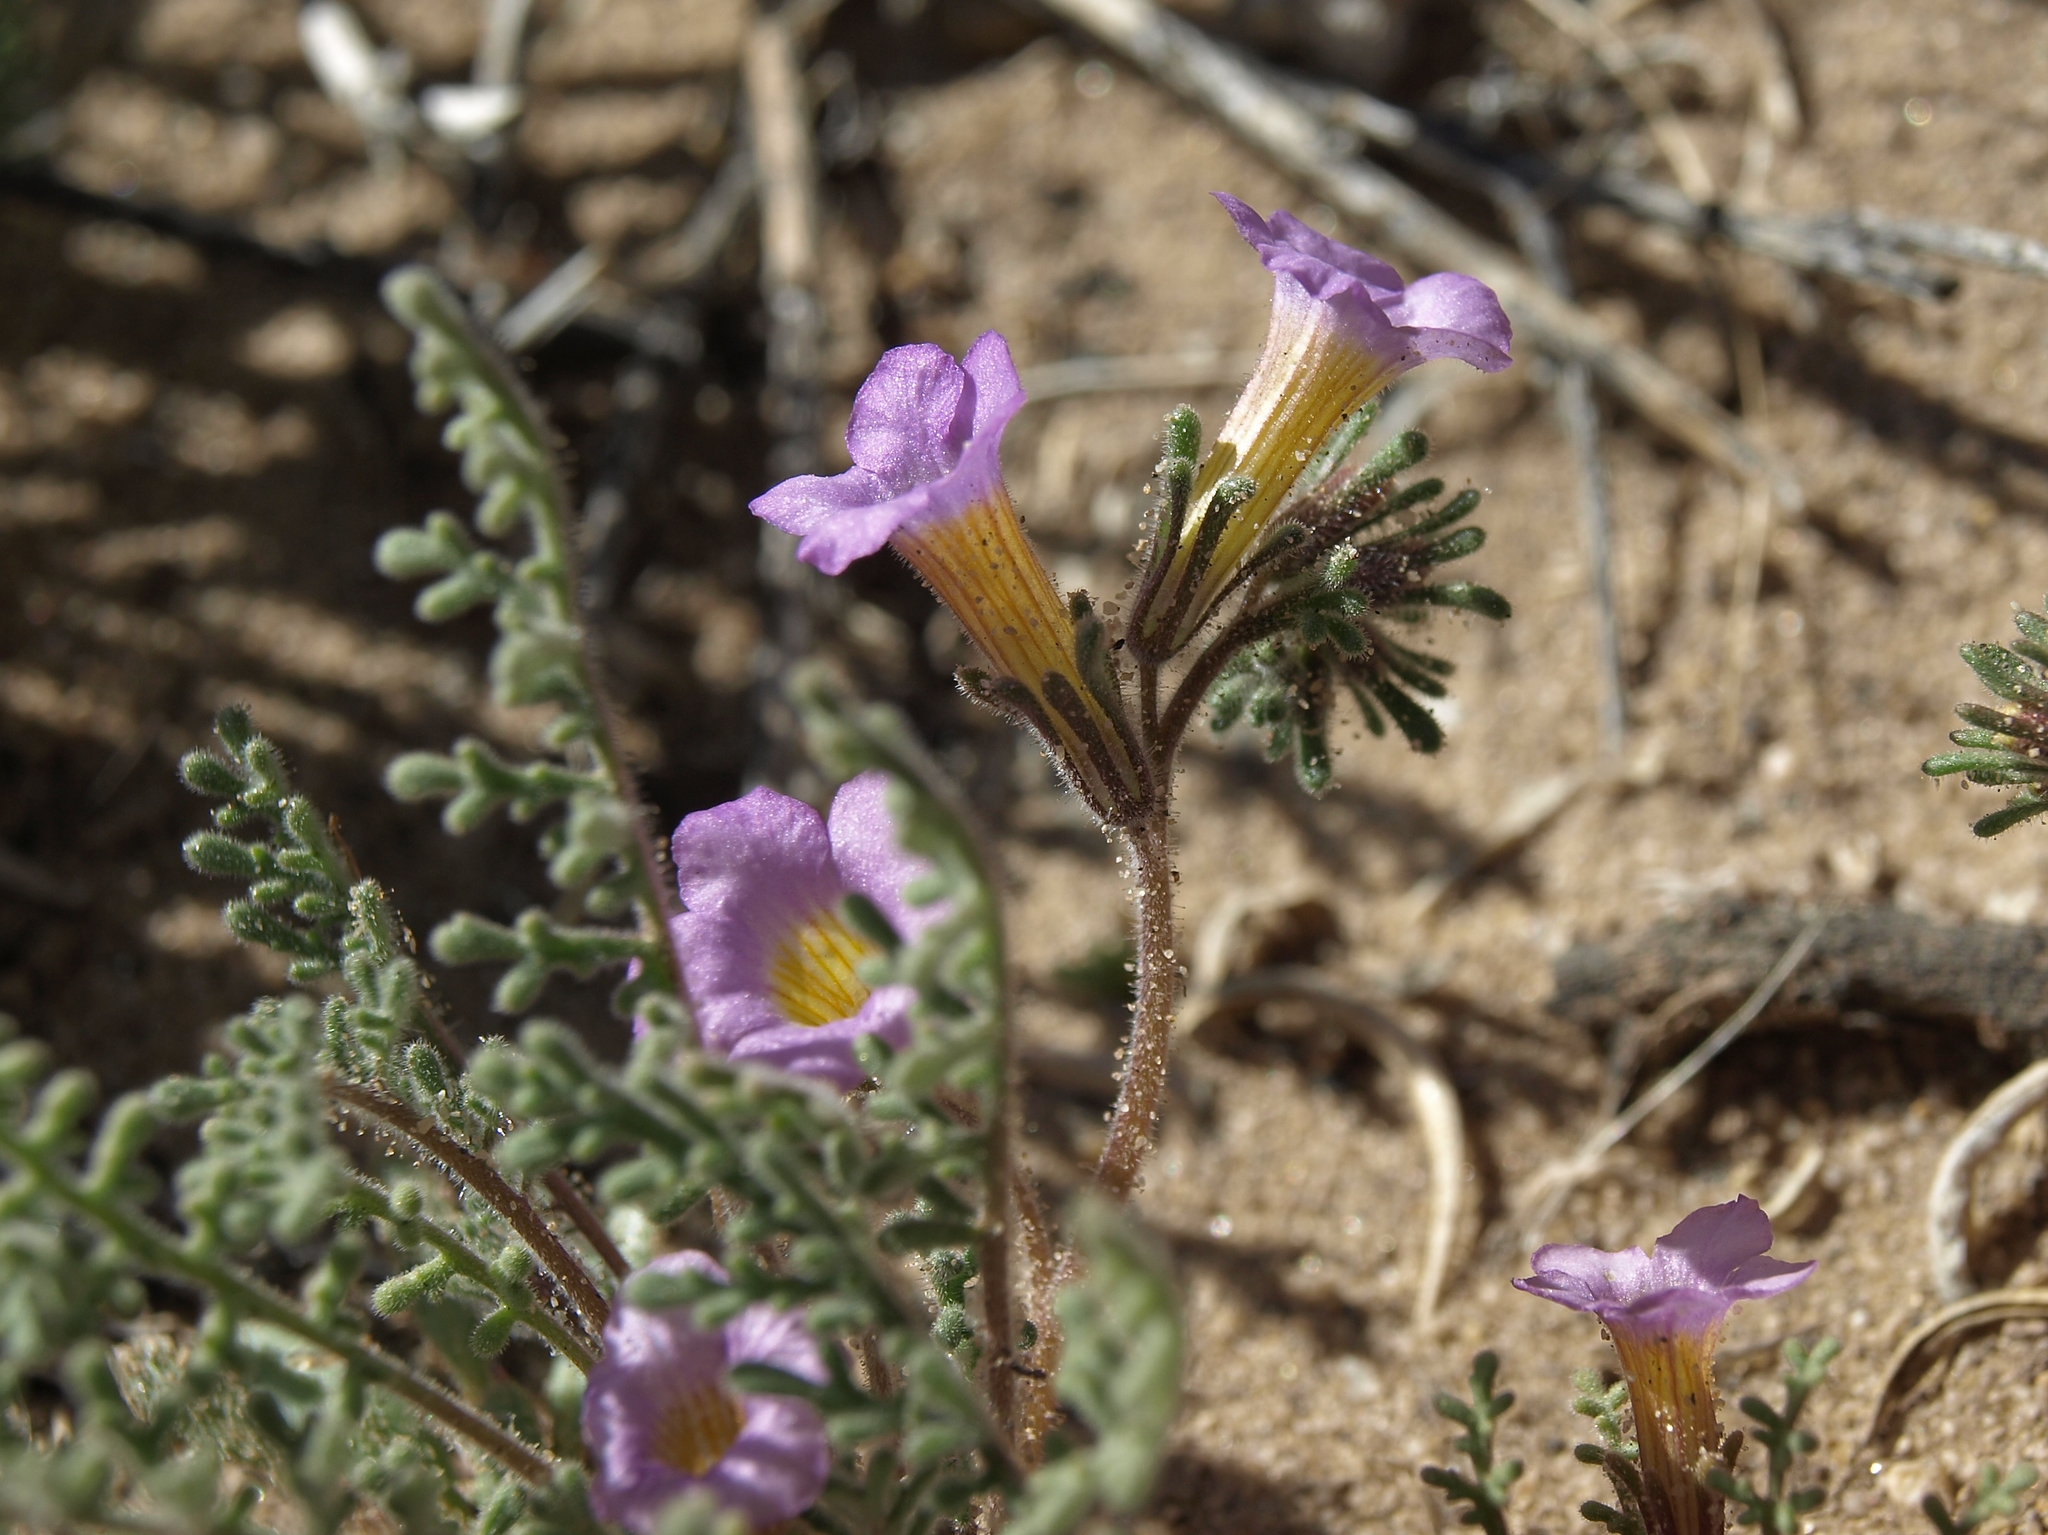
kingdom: Plantae
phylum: Tracheophyta
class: Magnoliopsida
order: Boraginales
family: Hydrophyllaceae
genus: Phacelia
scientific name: Phacelia bicolor
